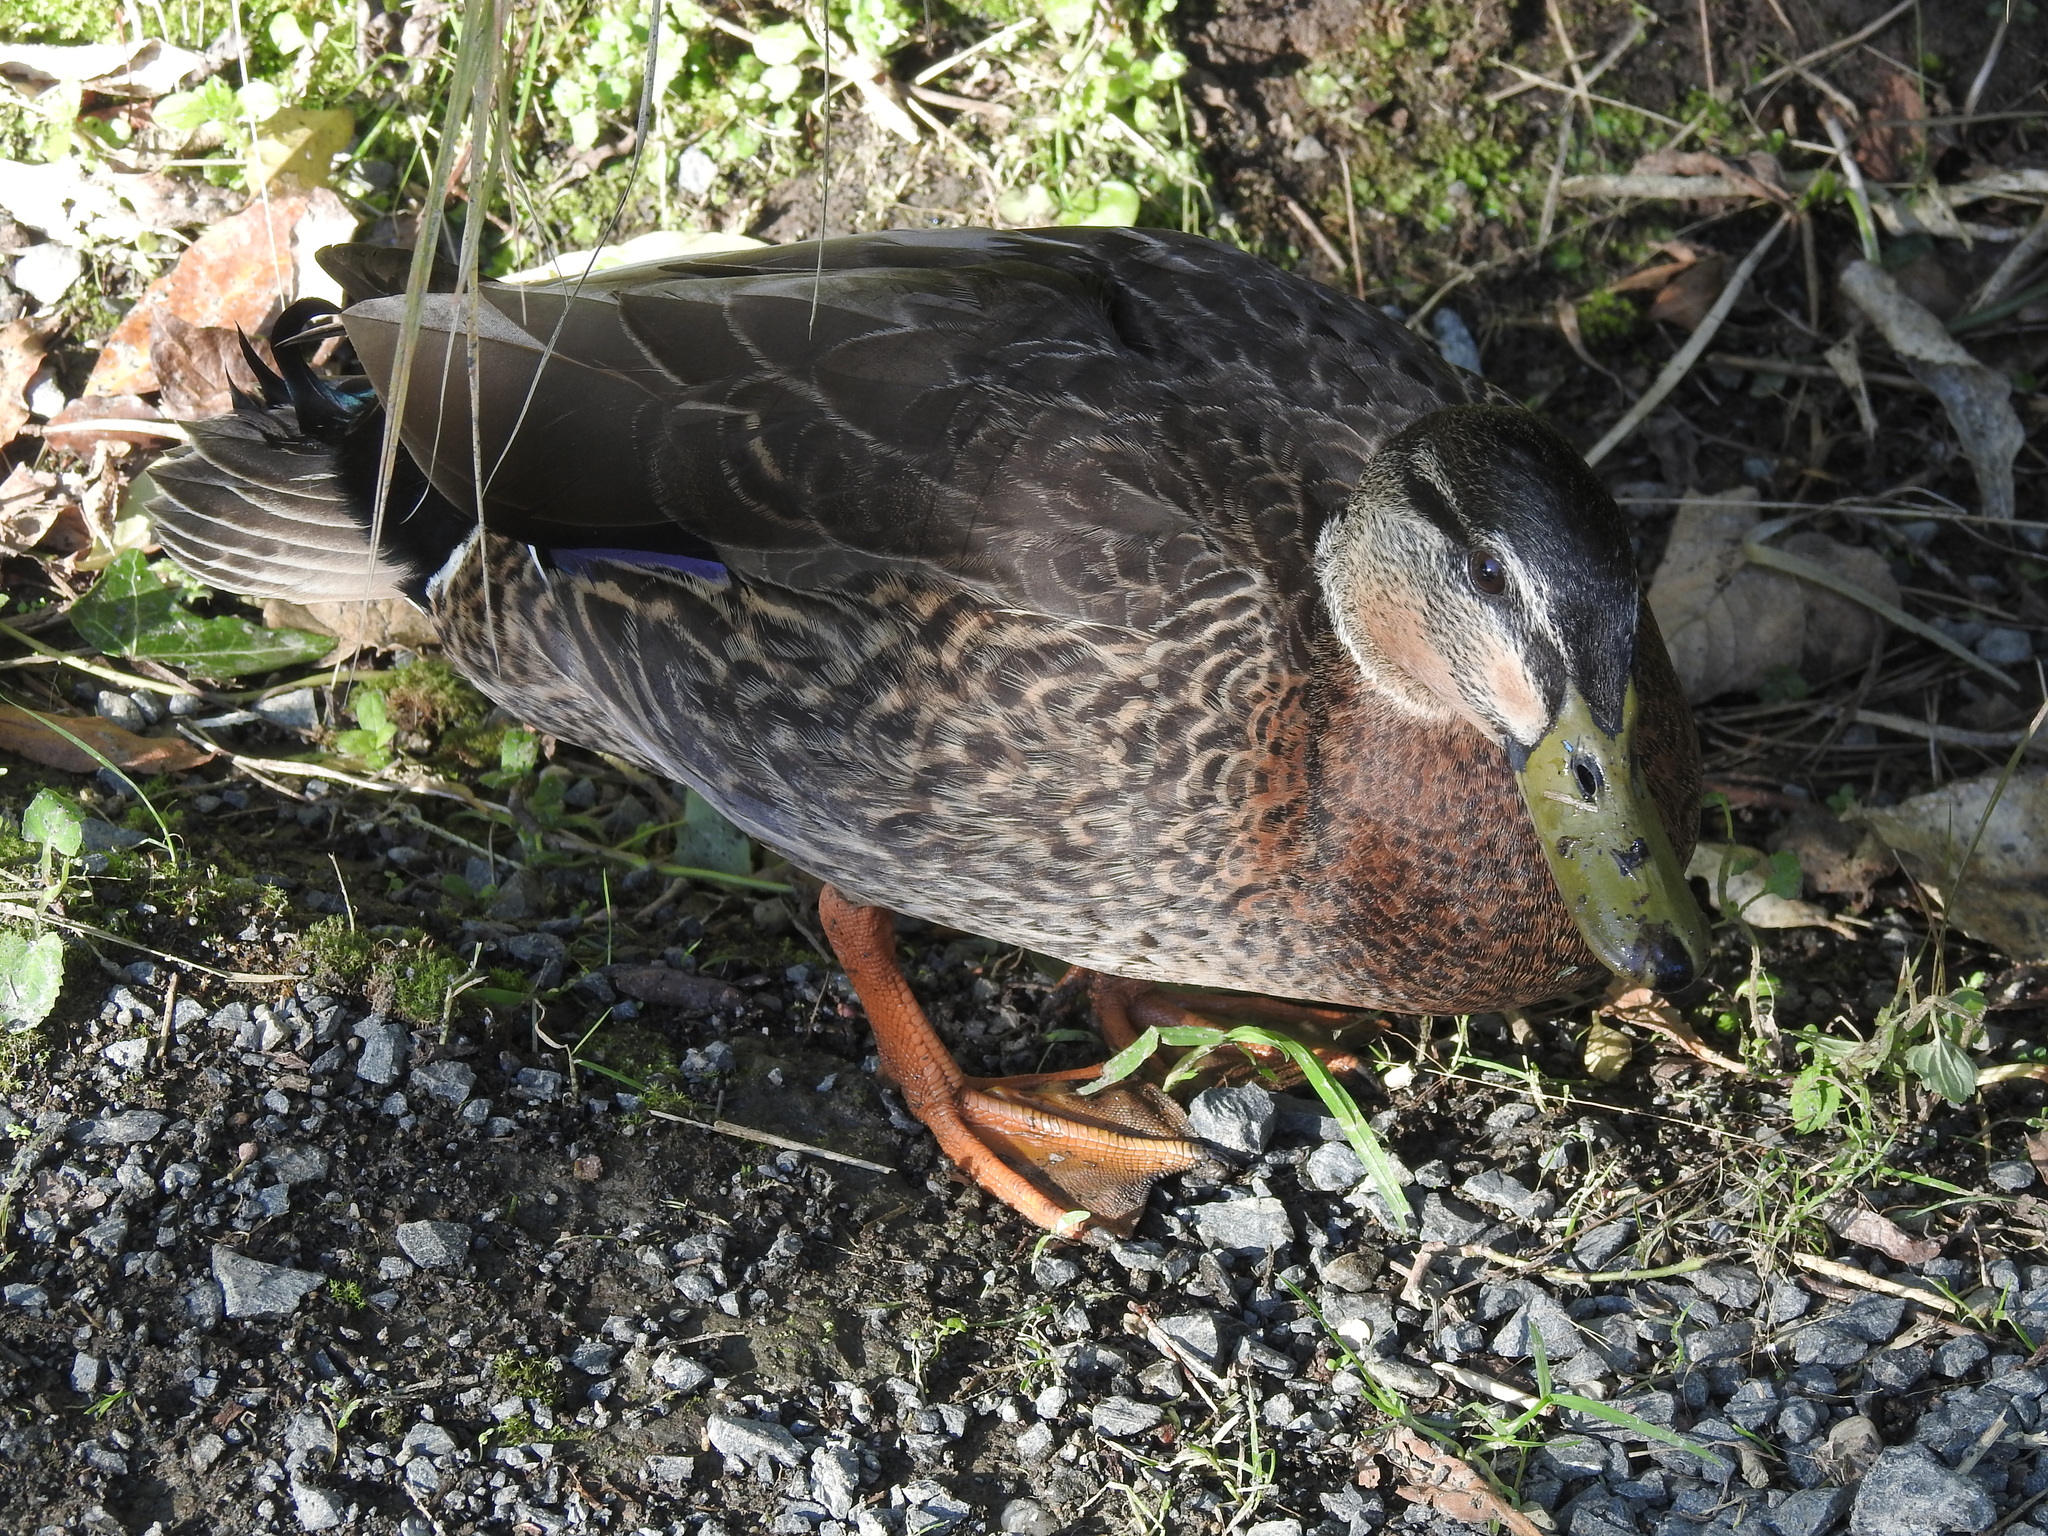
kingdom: Animalia
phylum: Chordata
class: Aves
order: Anseriformes
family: Anatidae
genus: Anas
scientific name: Anas
